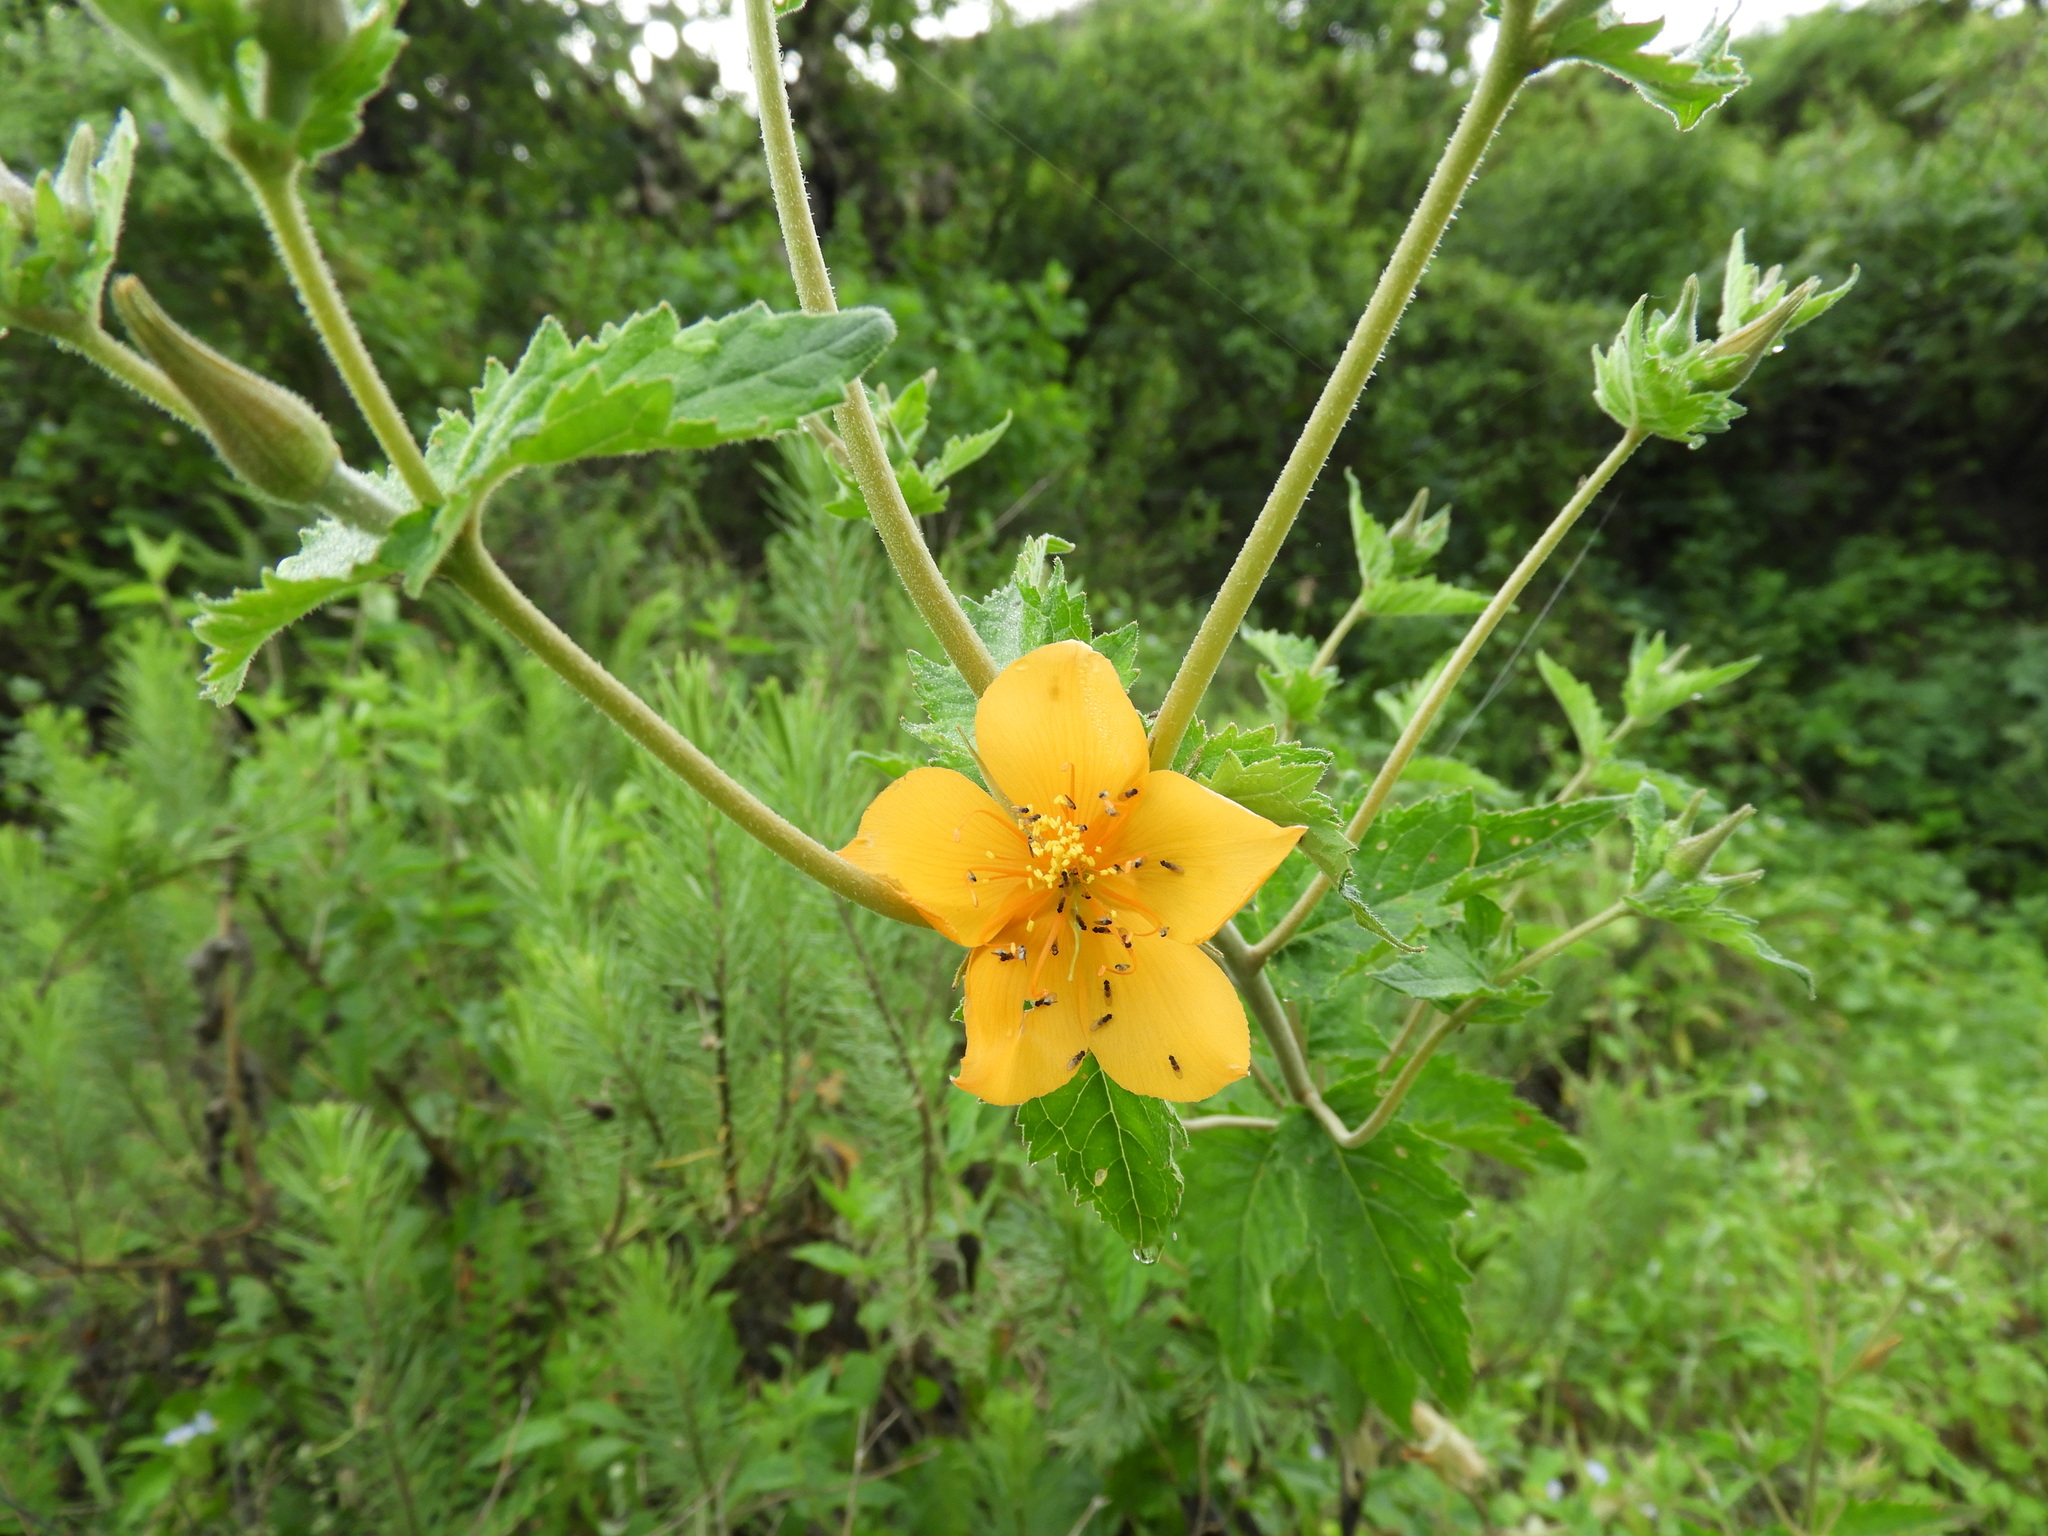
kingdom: Plantae
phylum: Tracheophyta
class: Magnoliopsida
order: Cornales
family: Loasaceae
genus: Mentzelia
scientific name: Mentzelia hispida
